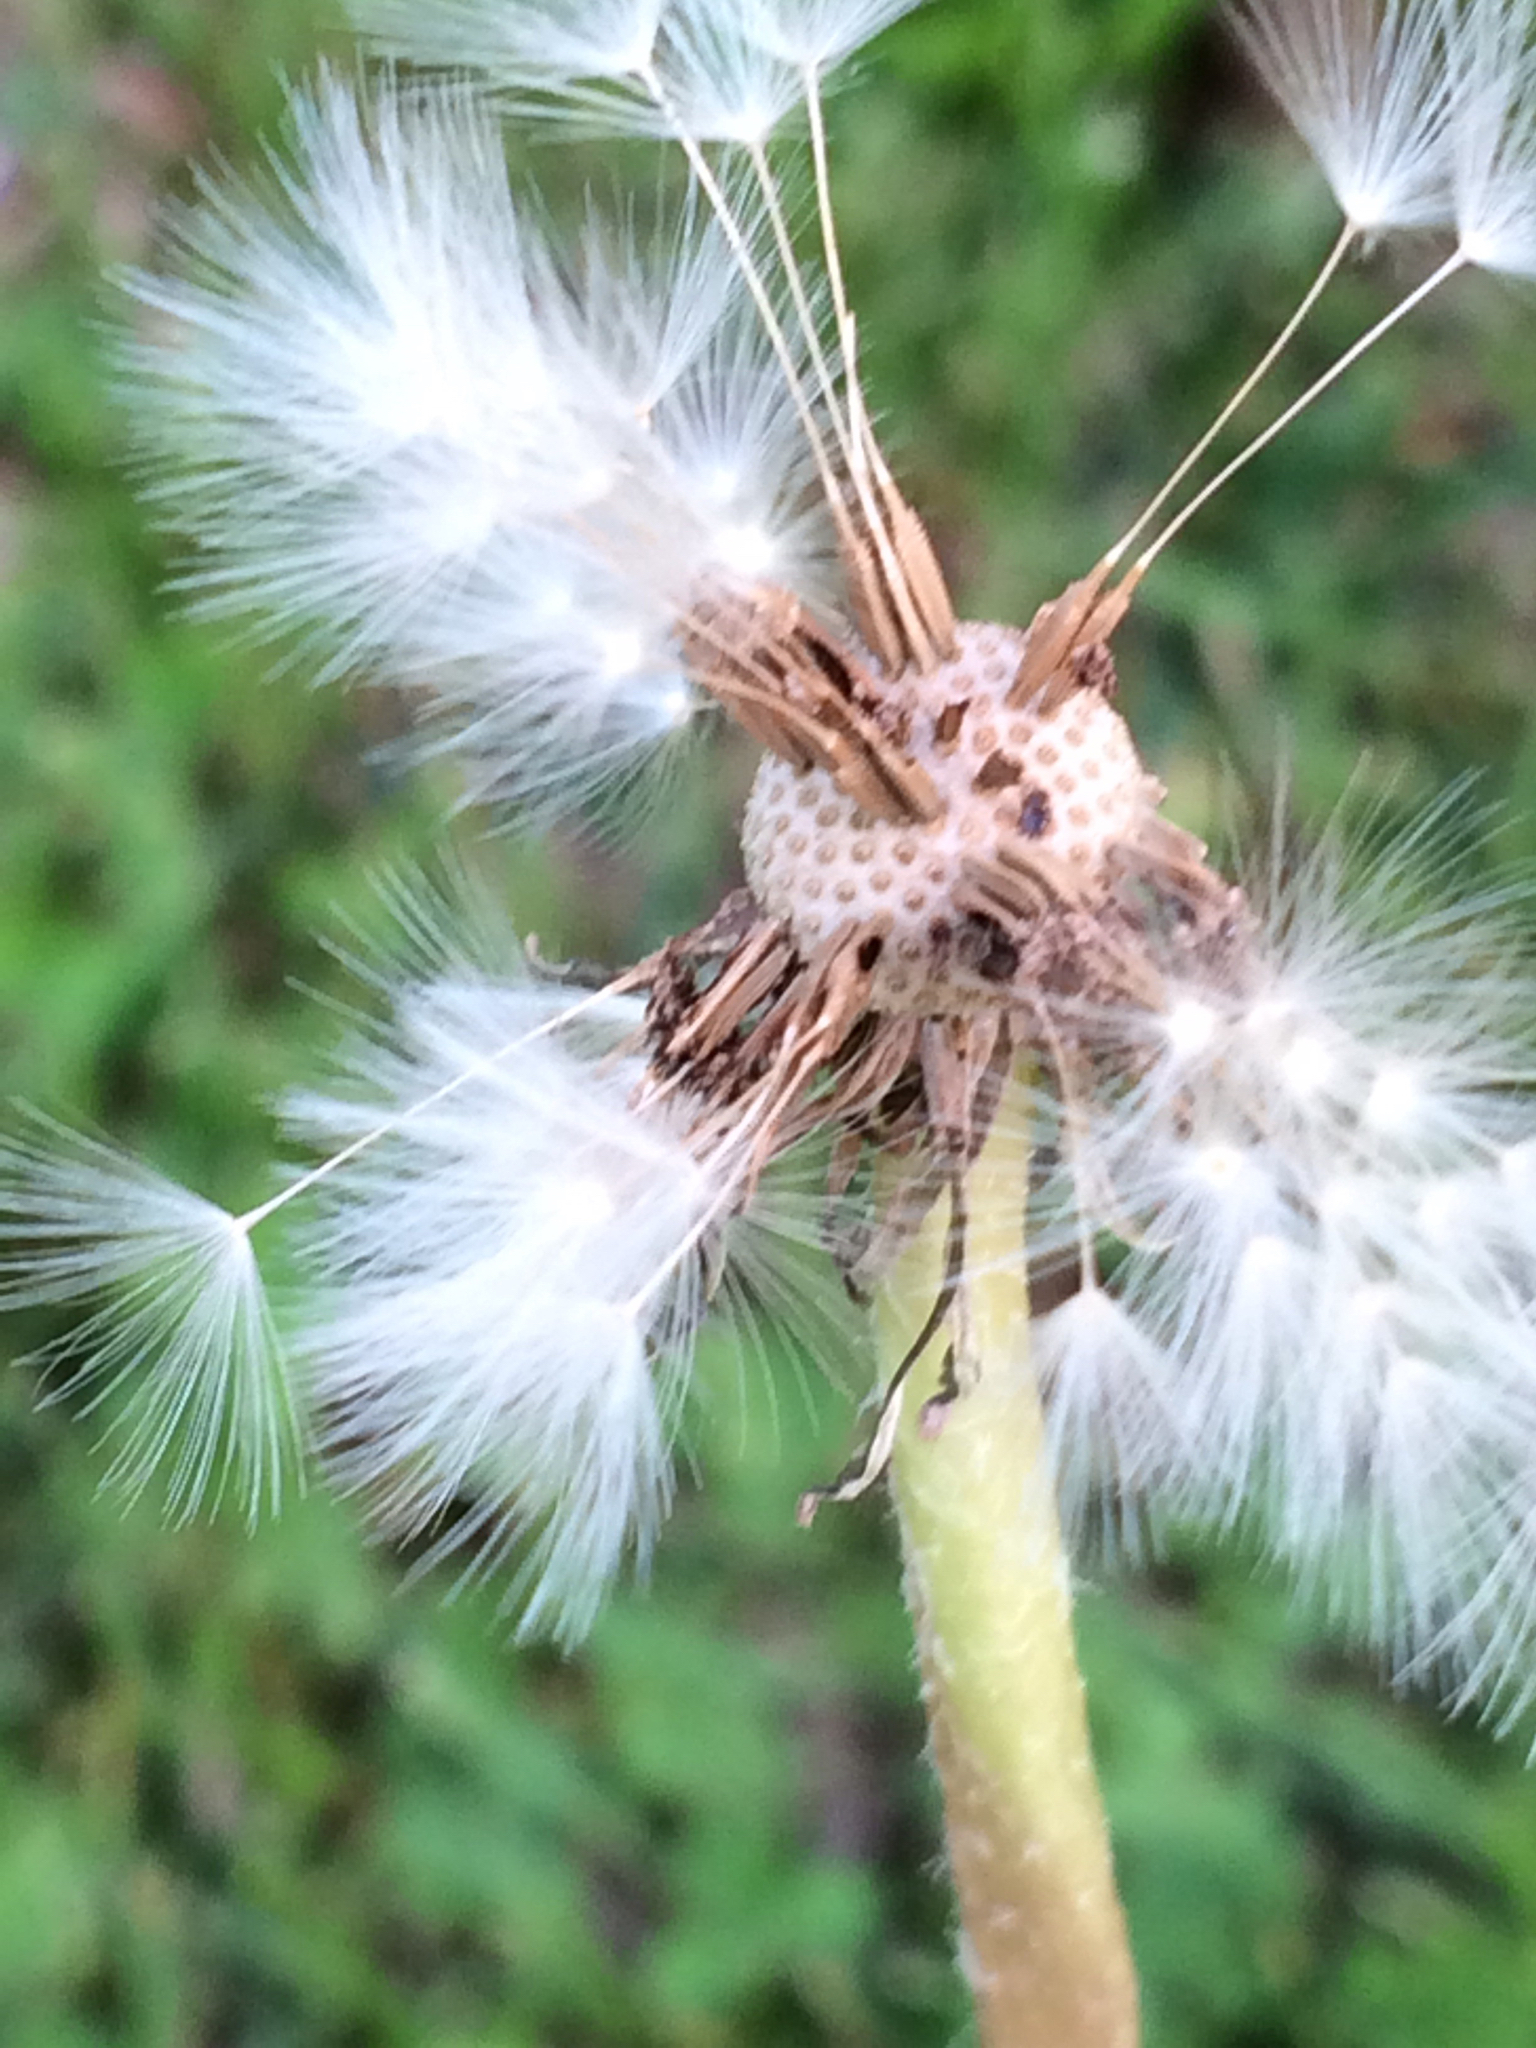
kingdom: Plantae
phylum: Tracheophyta
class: Magnoliopsida
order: Asterales
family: Asteraceae
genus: Taraxacum
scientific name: Taraxacum officinale
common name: Common dandelion
